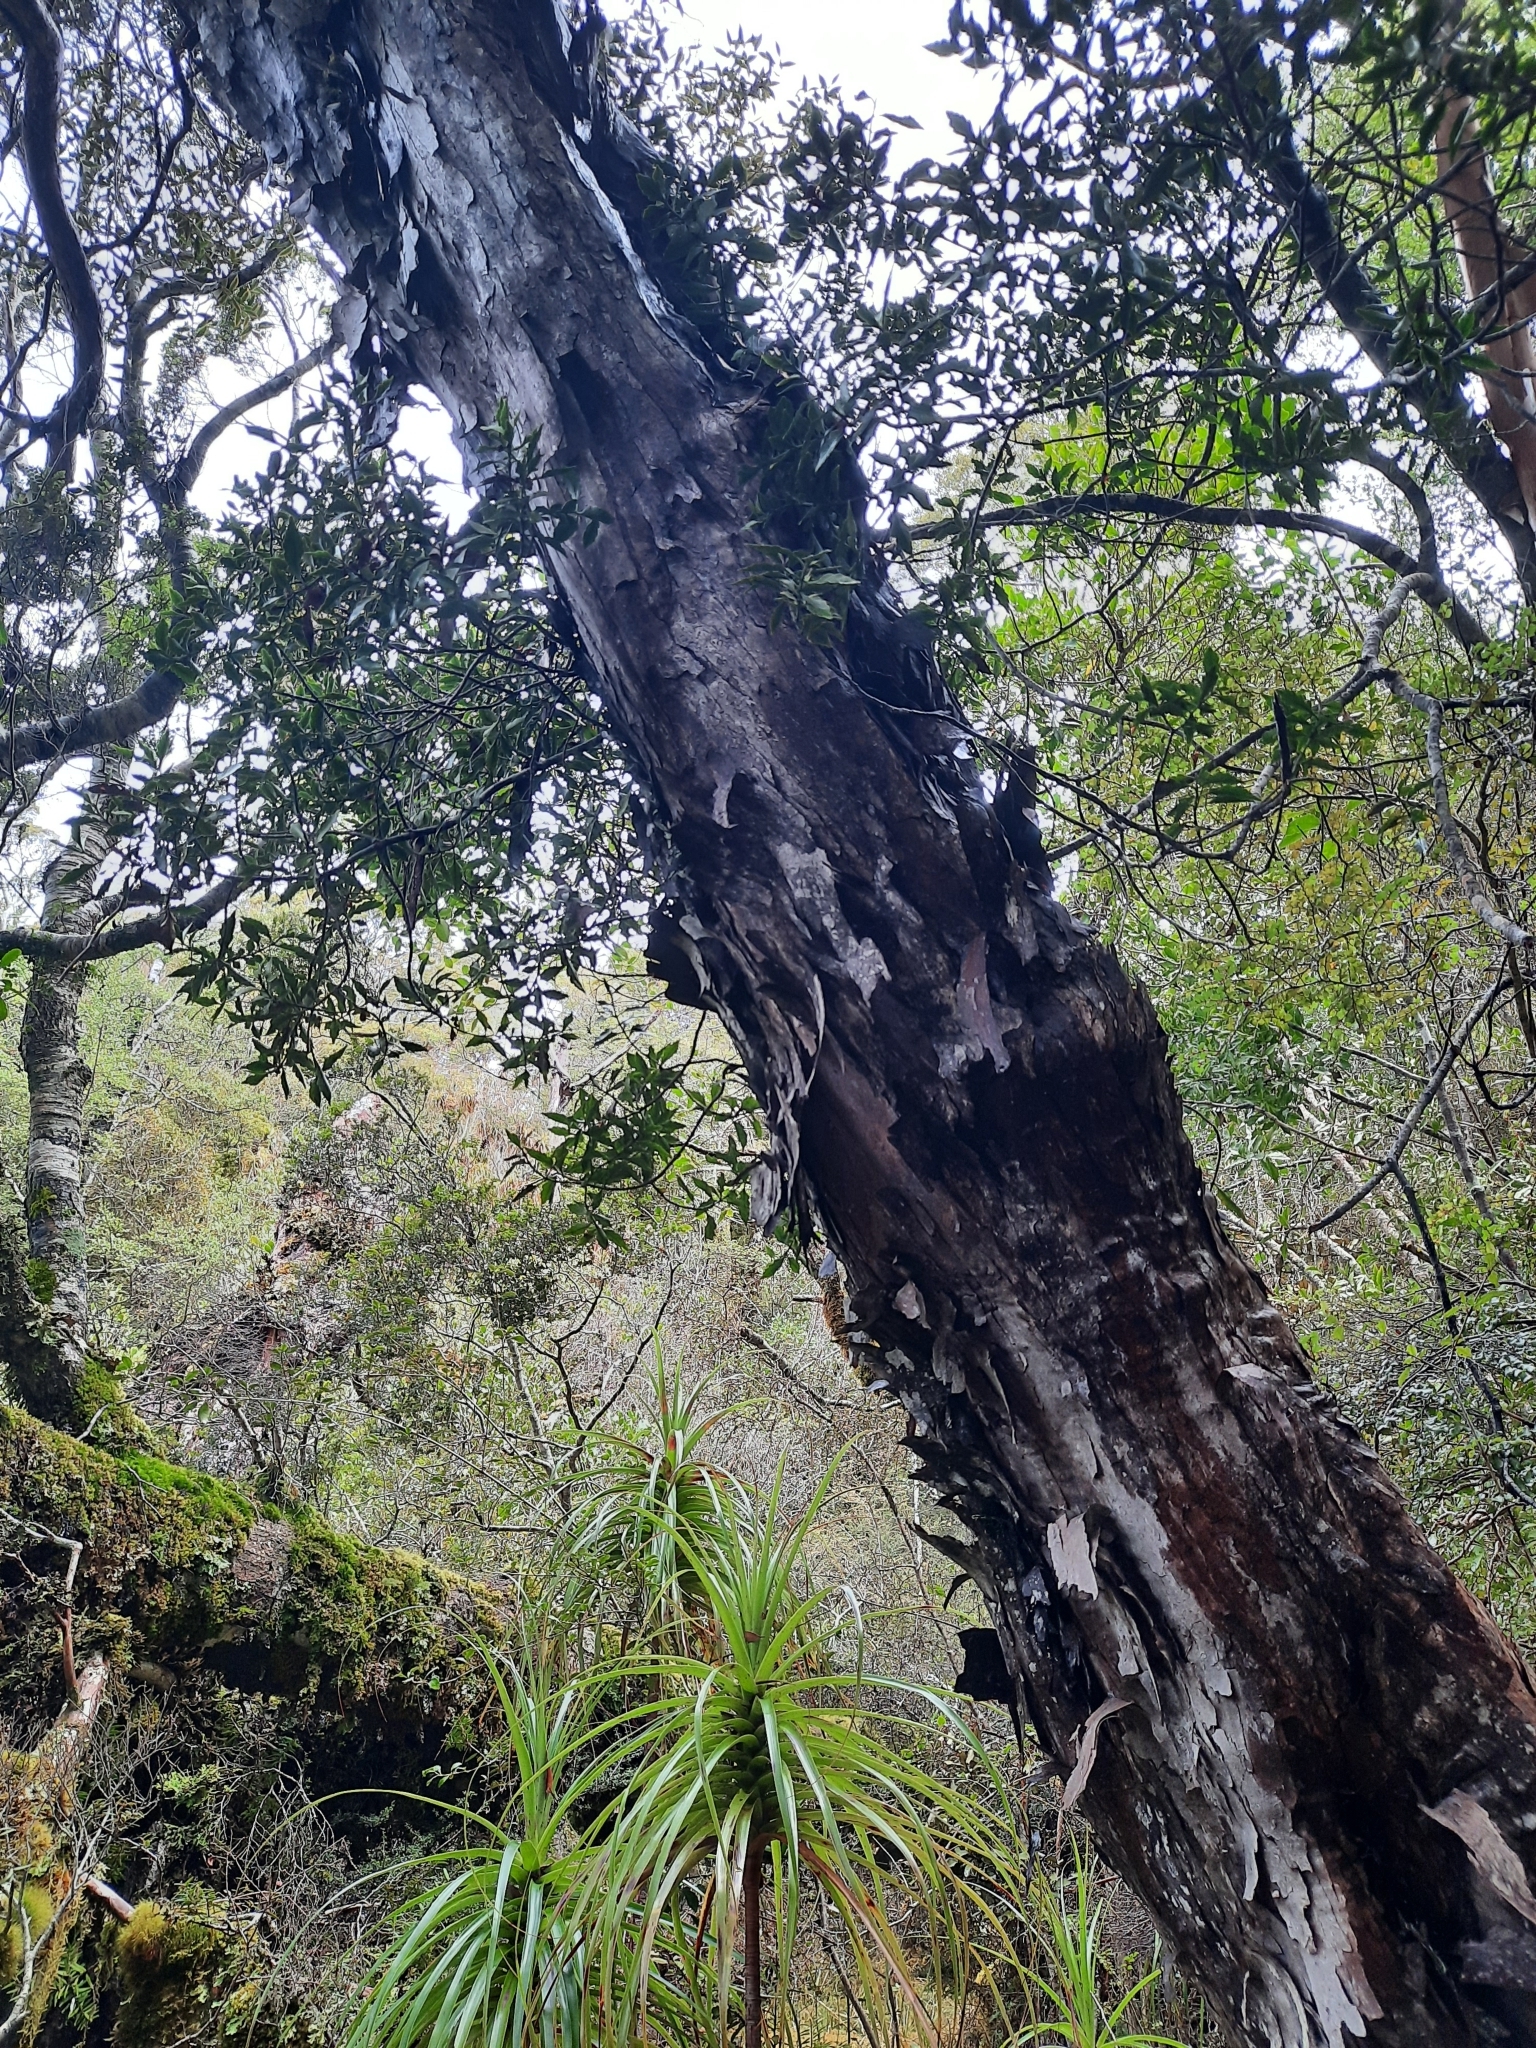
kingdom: Plantae
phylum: Tracheophyta
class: Magnoliopsida
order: Myrtales
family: Myrtaceae
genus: Metrosideros
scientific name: Metrosideros umbellata
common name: Southern rata
